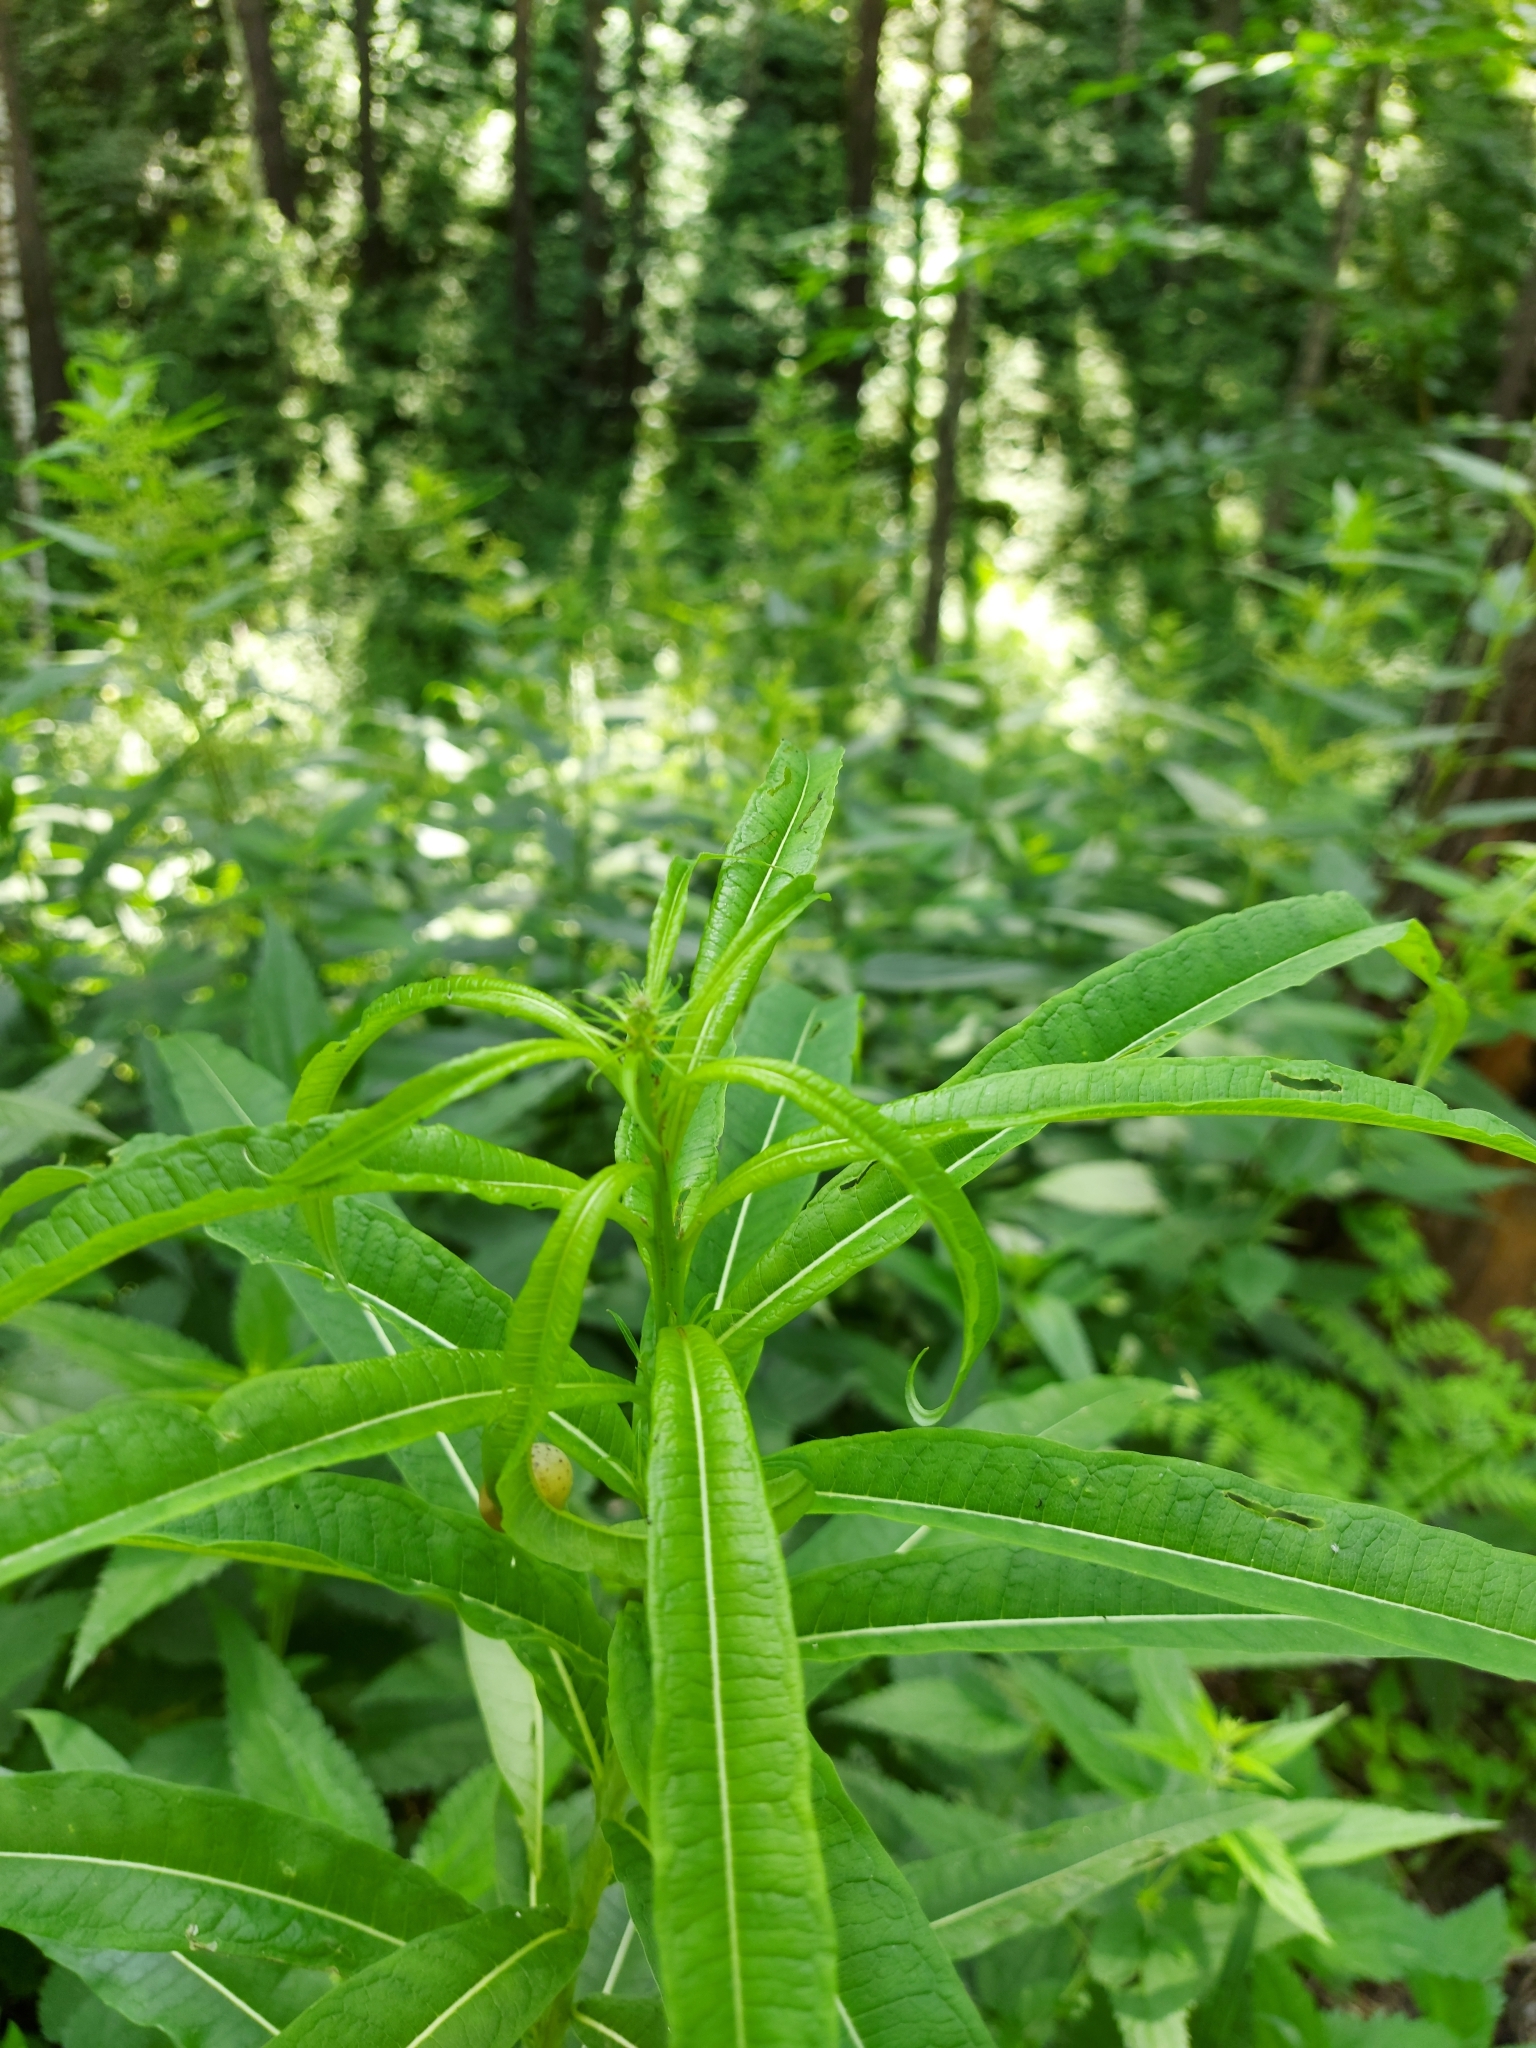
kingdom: Plantae
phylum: Tracheophyta
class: Magnoliopsida
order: Myrtales
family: Onagraceae
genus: Chamaenerion
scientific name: Chamaenerion angustifolium
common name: Fireweed
